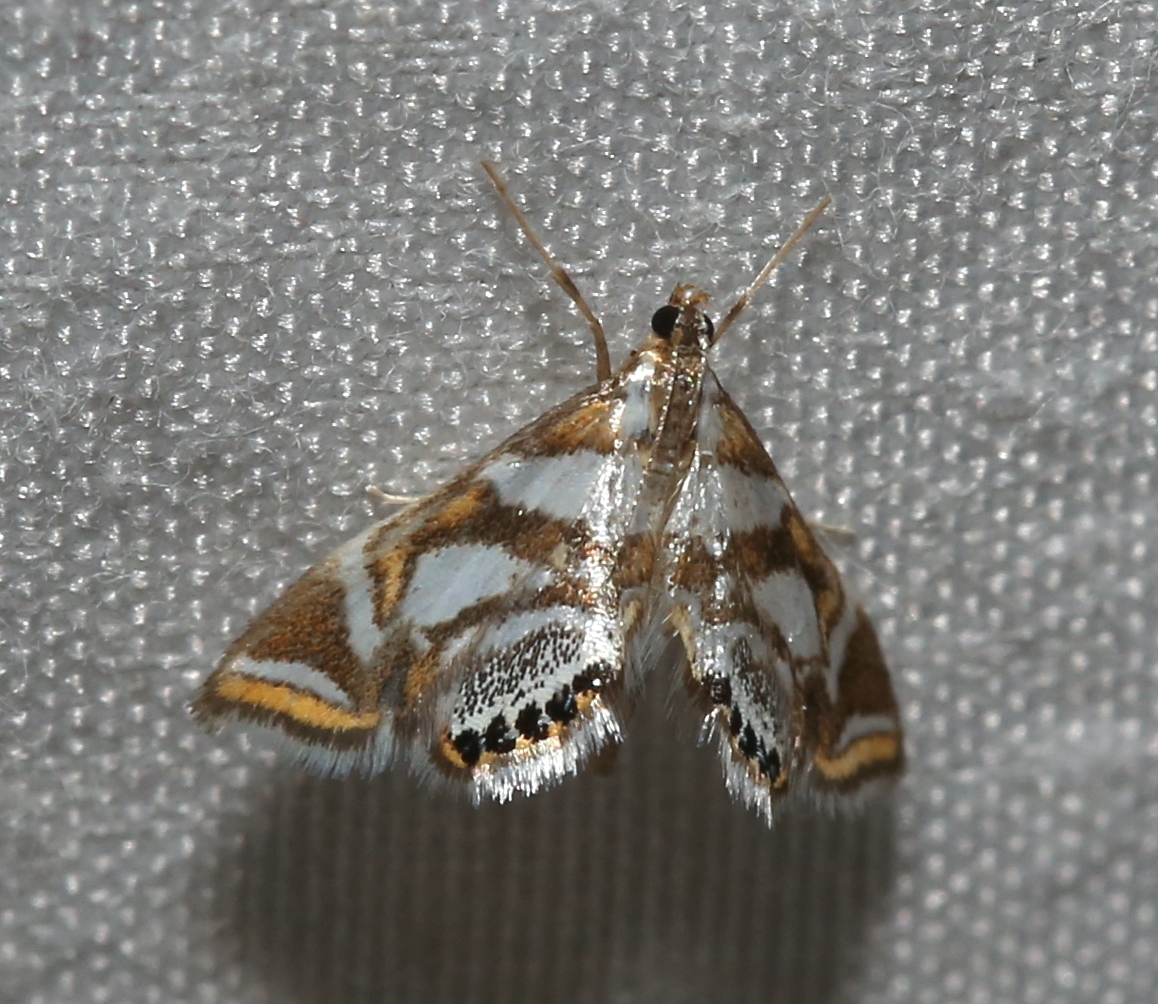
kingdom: Animalia
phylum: Arthropoda
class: Insecta
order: Lepidoptera
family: Crambidae
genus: Chrysendeton
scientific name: Chrysendeton medicinalis
